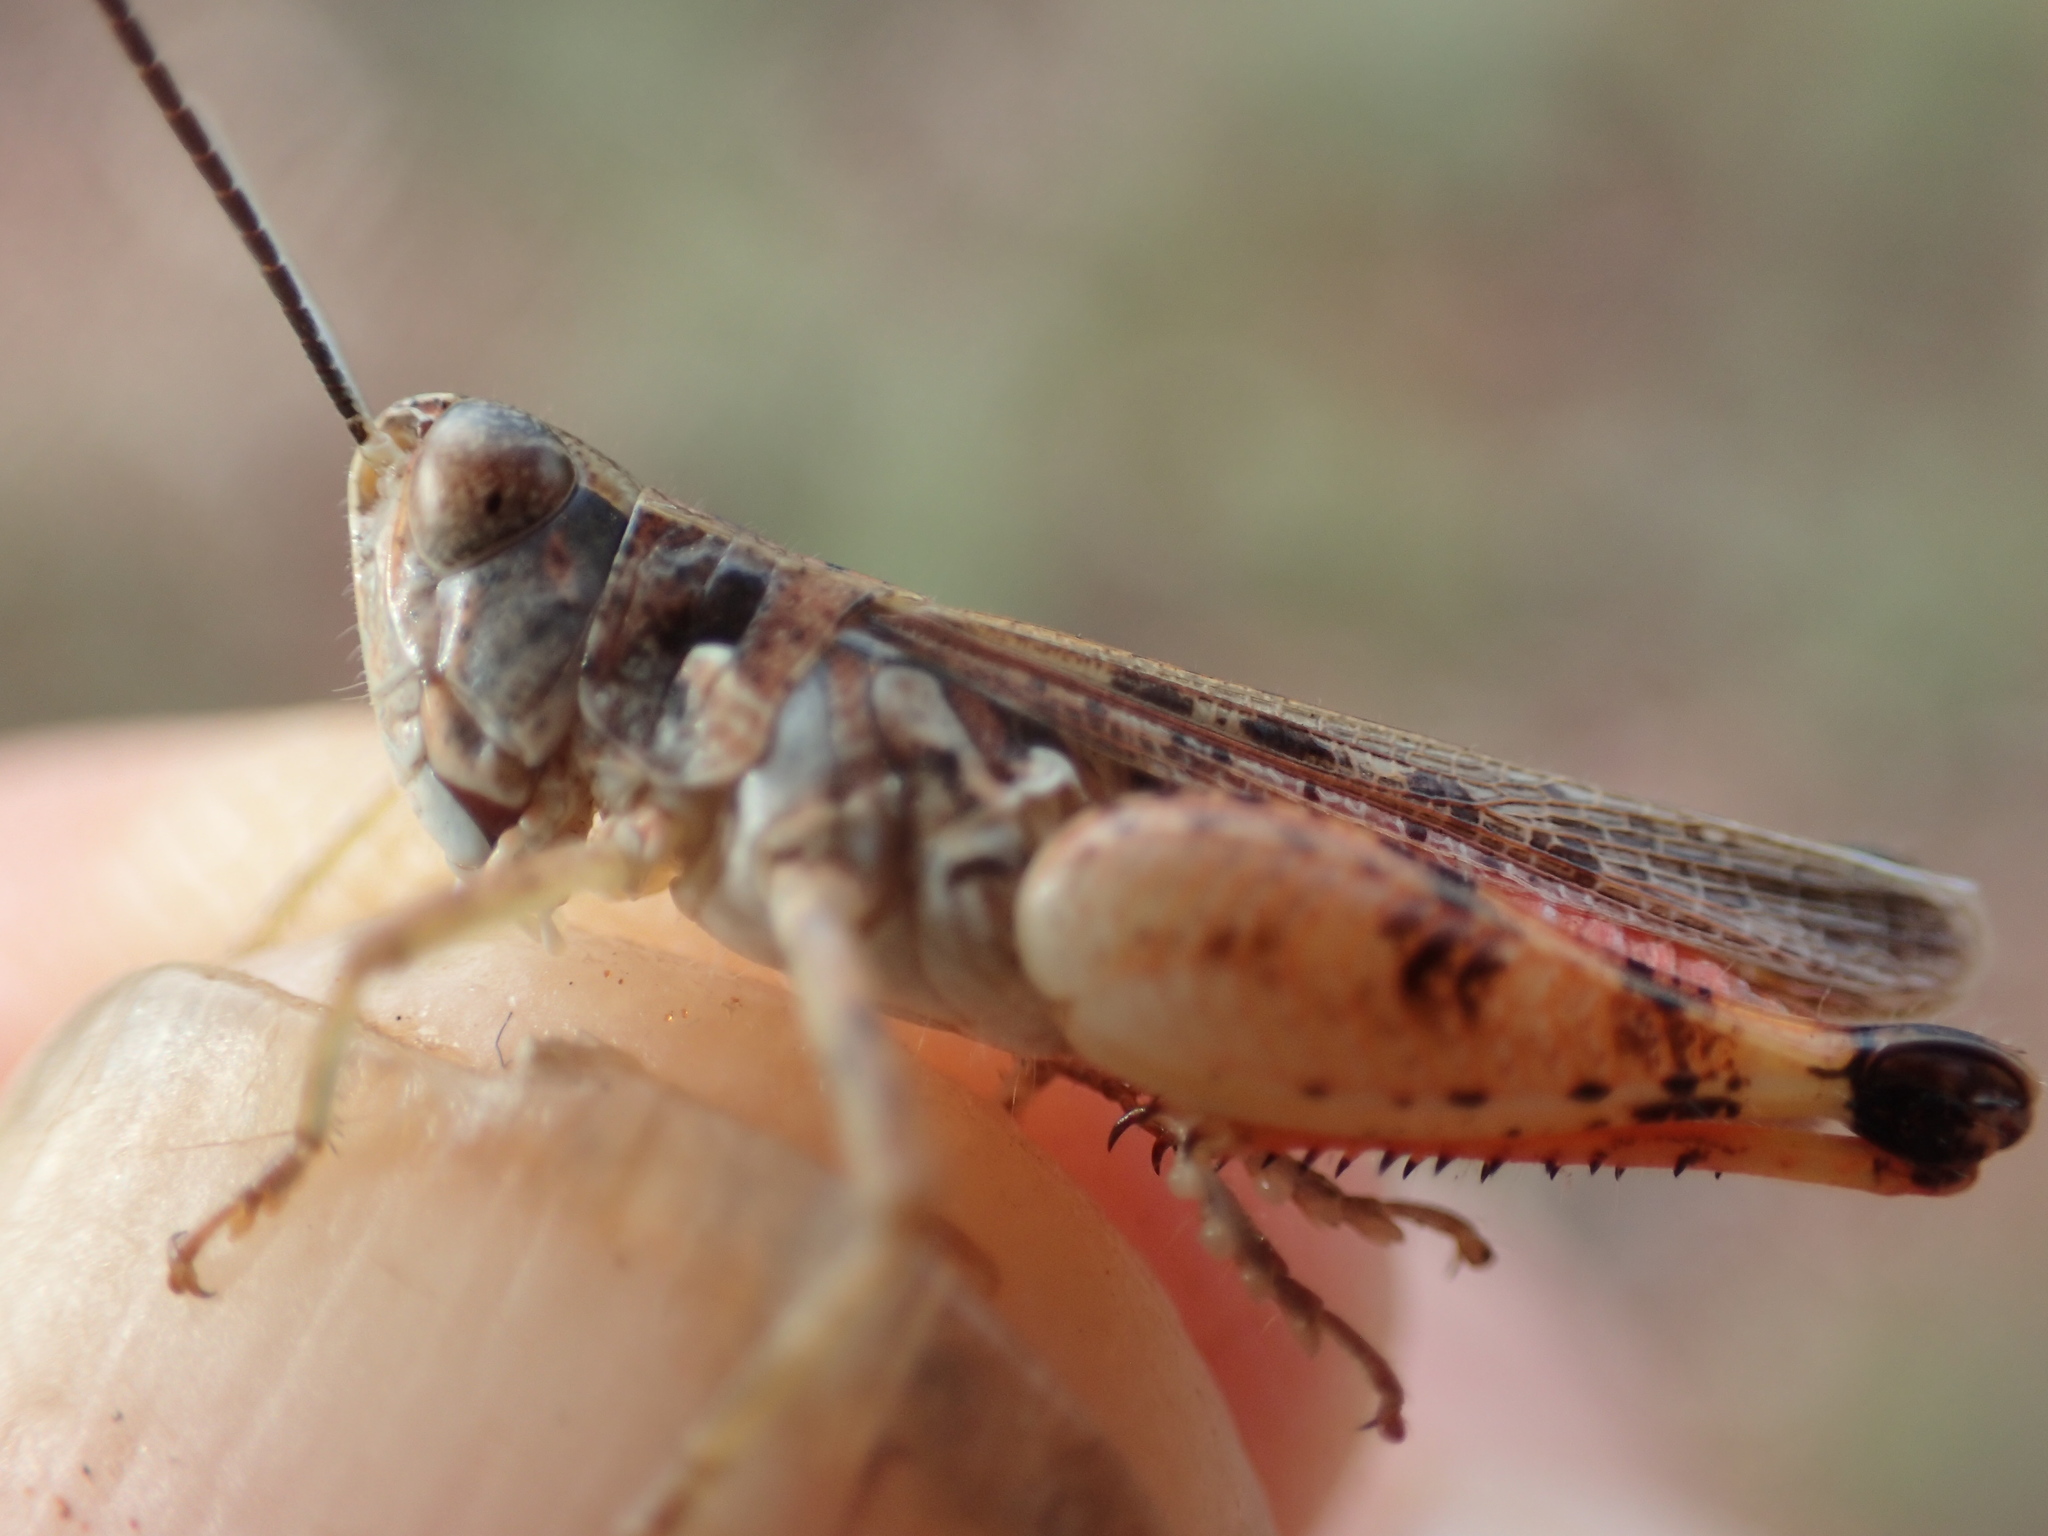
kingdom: Animalia
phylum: Arthropoda
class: Insecta
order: Orthoptera
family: Acrididae
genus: Azelota
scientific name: Azelota
